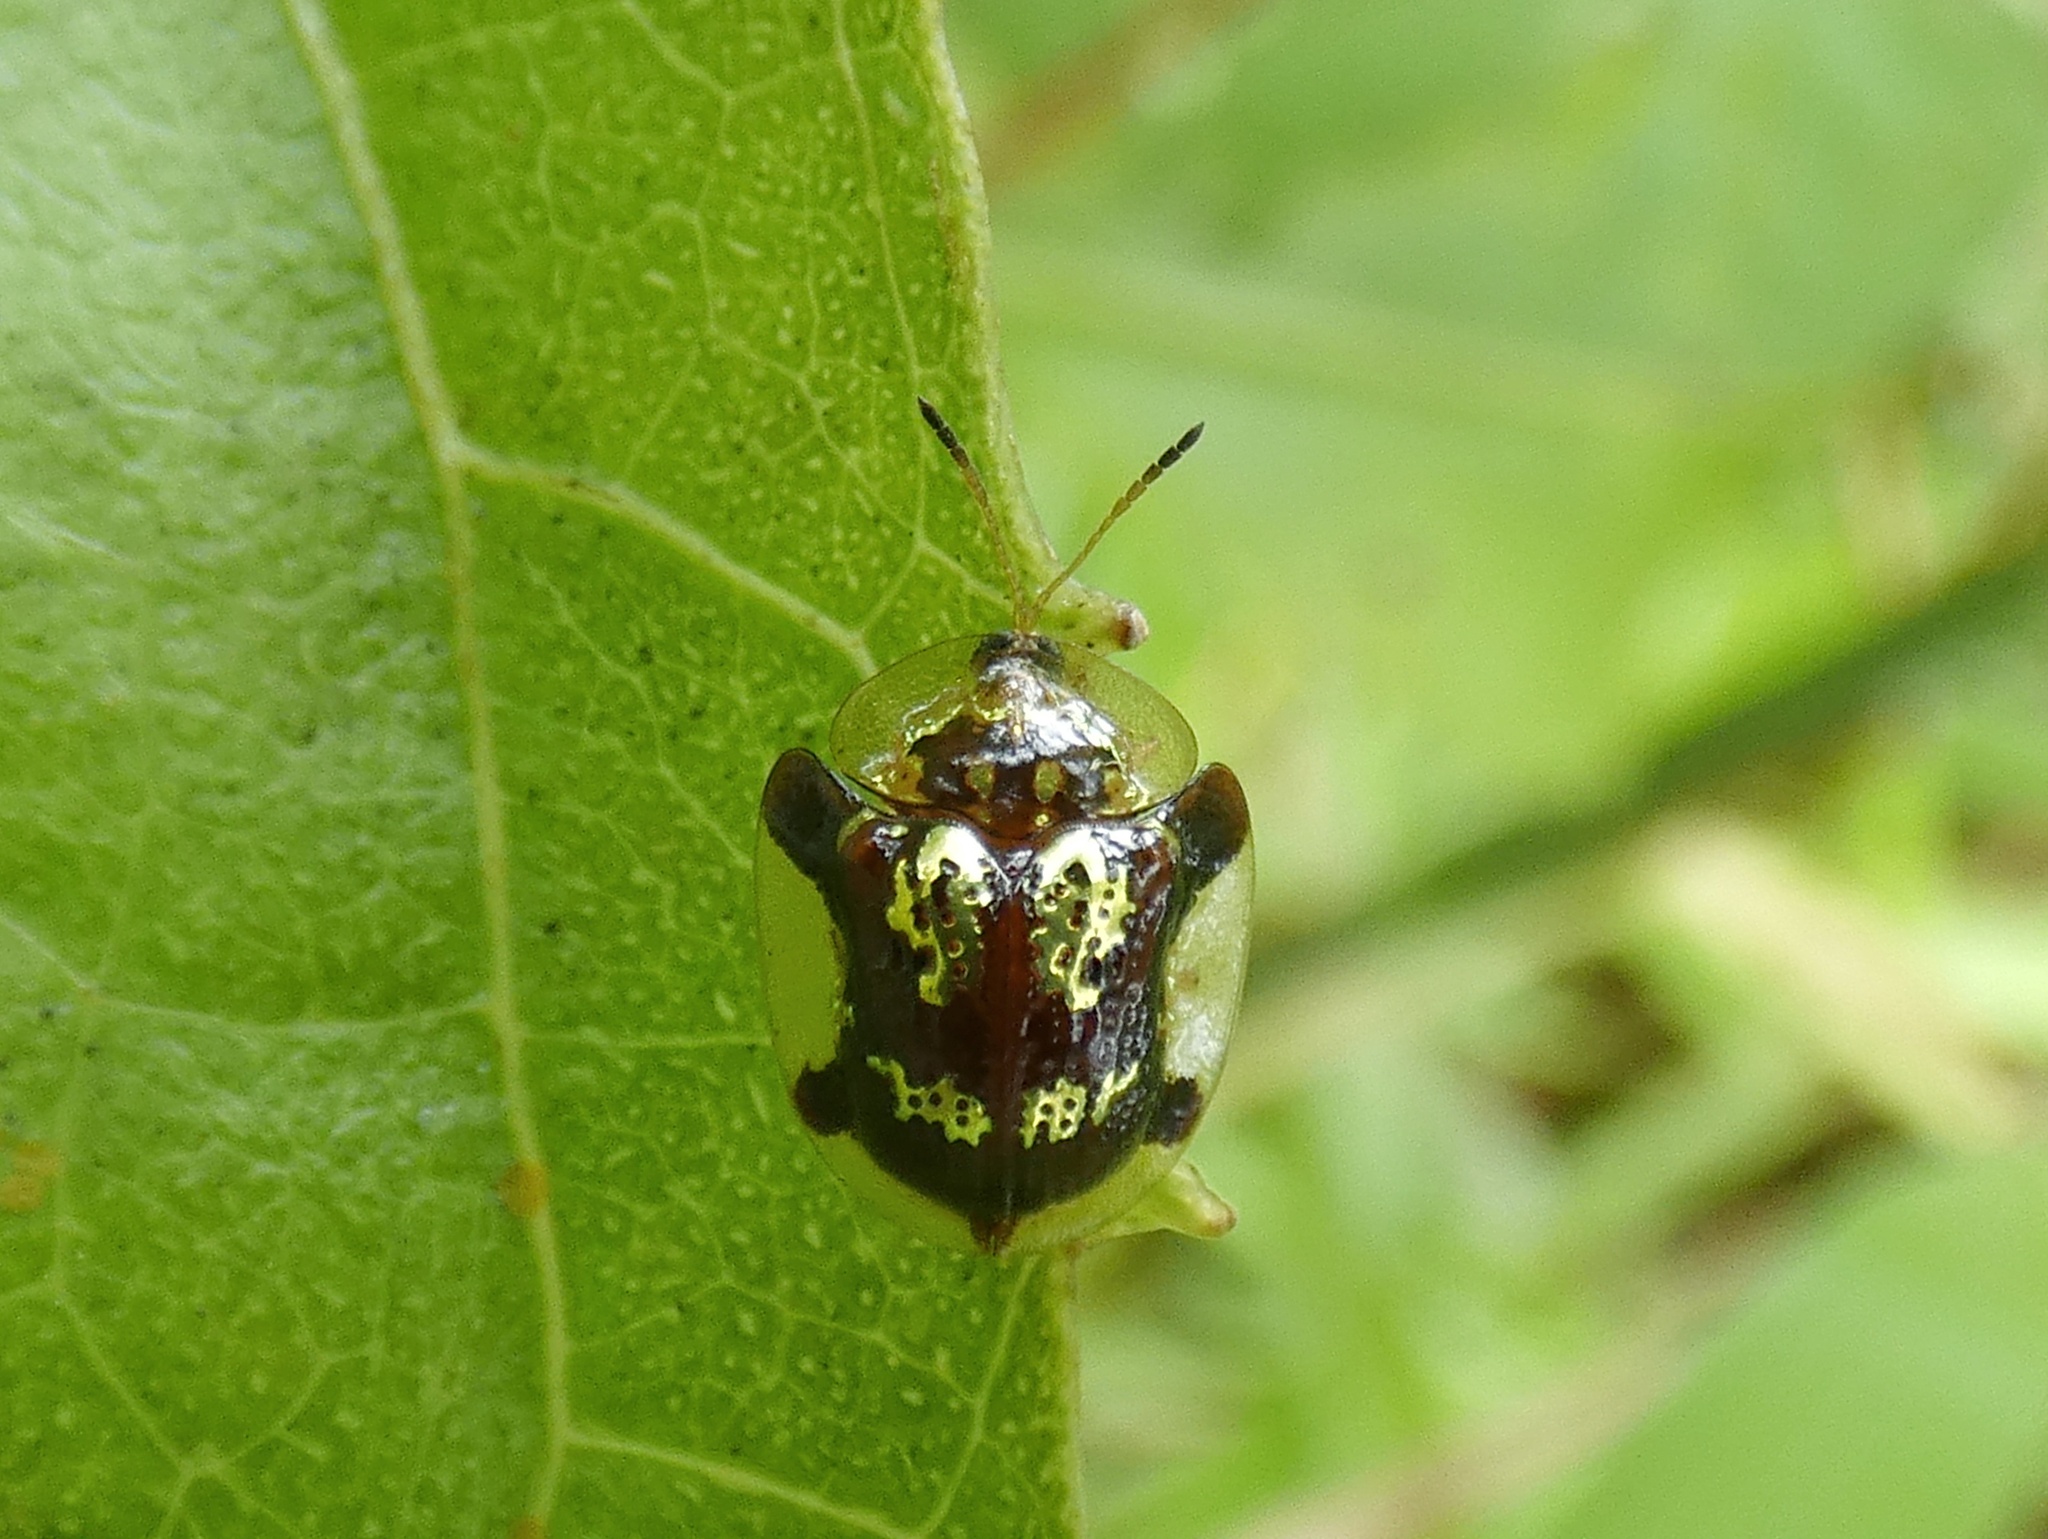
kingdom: Animalia
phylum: Arthropoda
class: Insecta
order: Coleoptera
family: Chrysomelidae
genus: Deloyala
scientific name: Deloyala insubida
